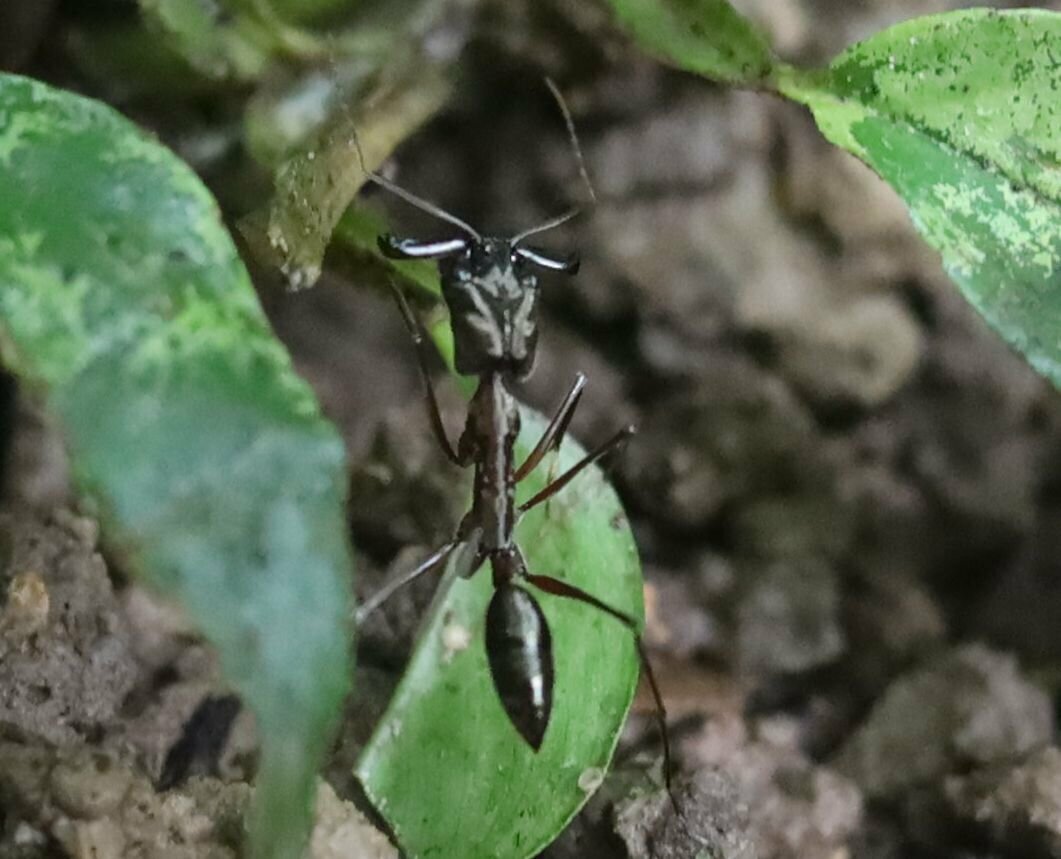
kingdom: Animalia
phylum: Arthropoda
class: Insecta
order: Hymenoptera
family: Formicidae
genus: Odontomachus
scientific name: Odontomachus chelifer
